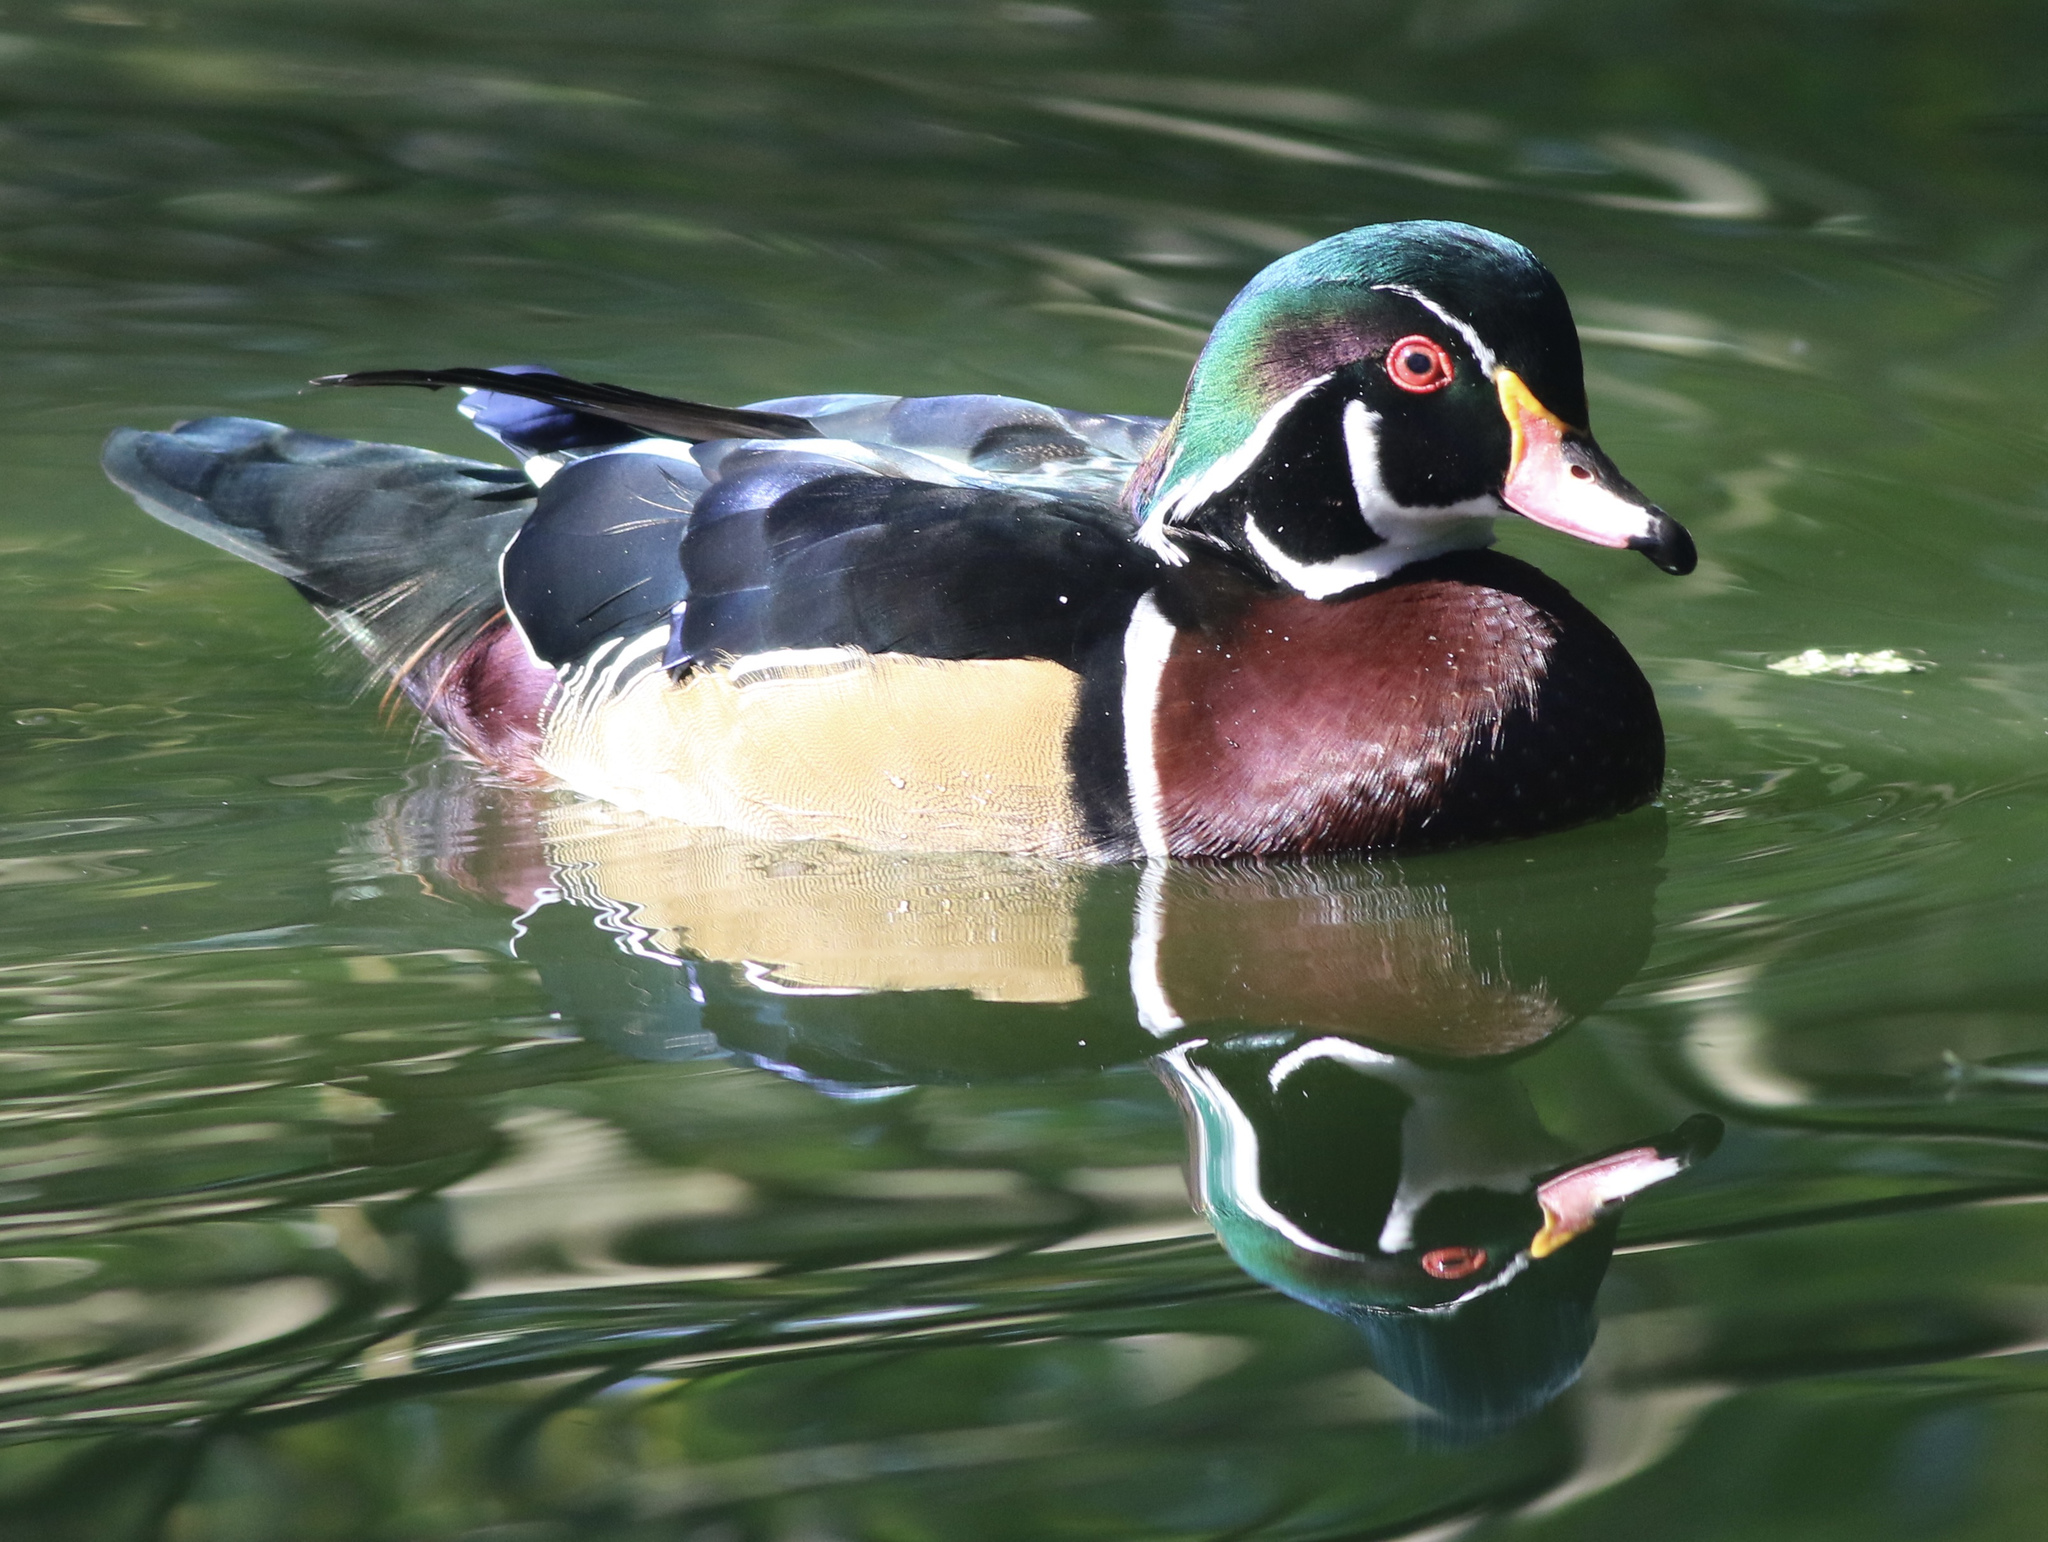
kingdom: Animalia
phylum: Chordata
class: Aves
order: Anseriformes
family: Anatidae
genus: Aix
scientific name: Aix sponsa
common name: Wood duck
